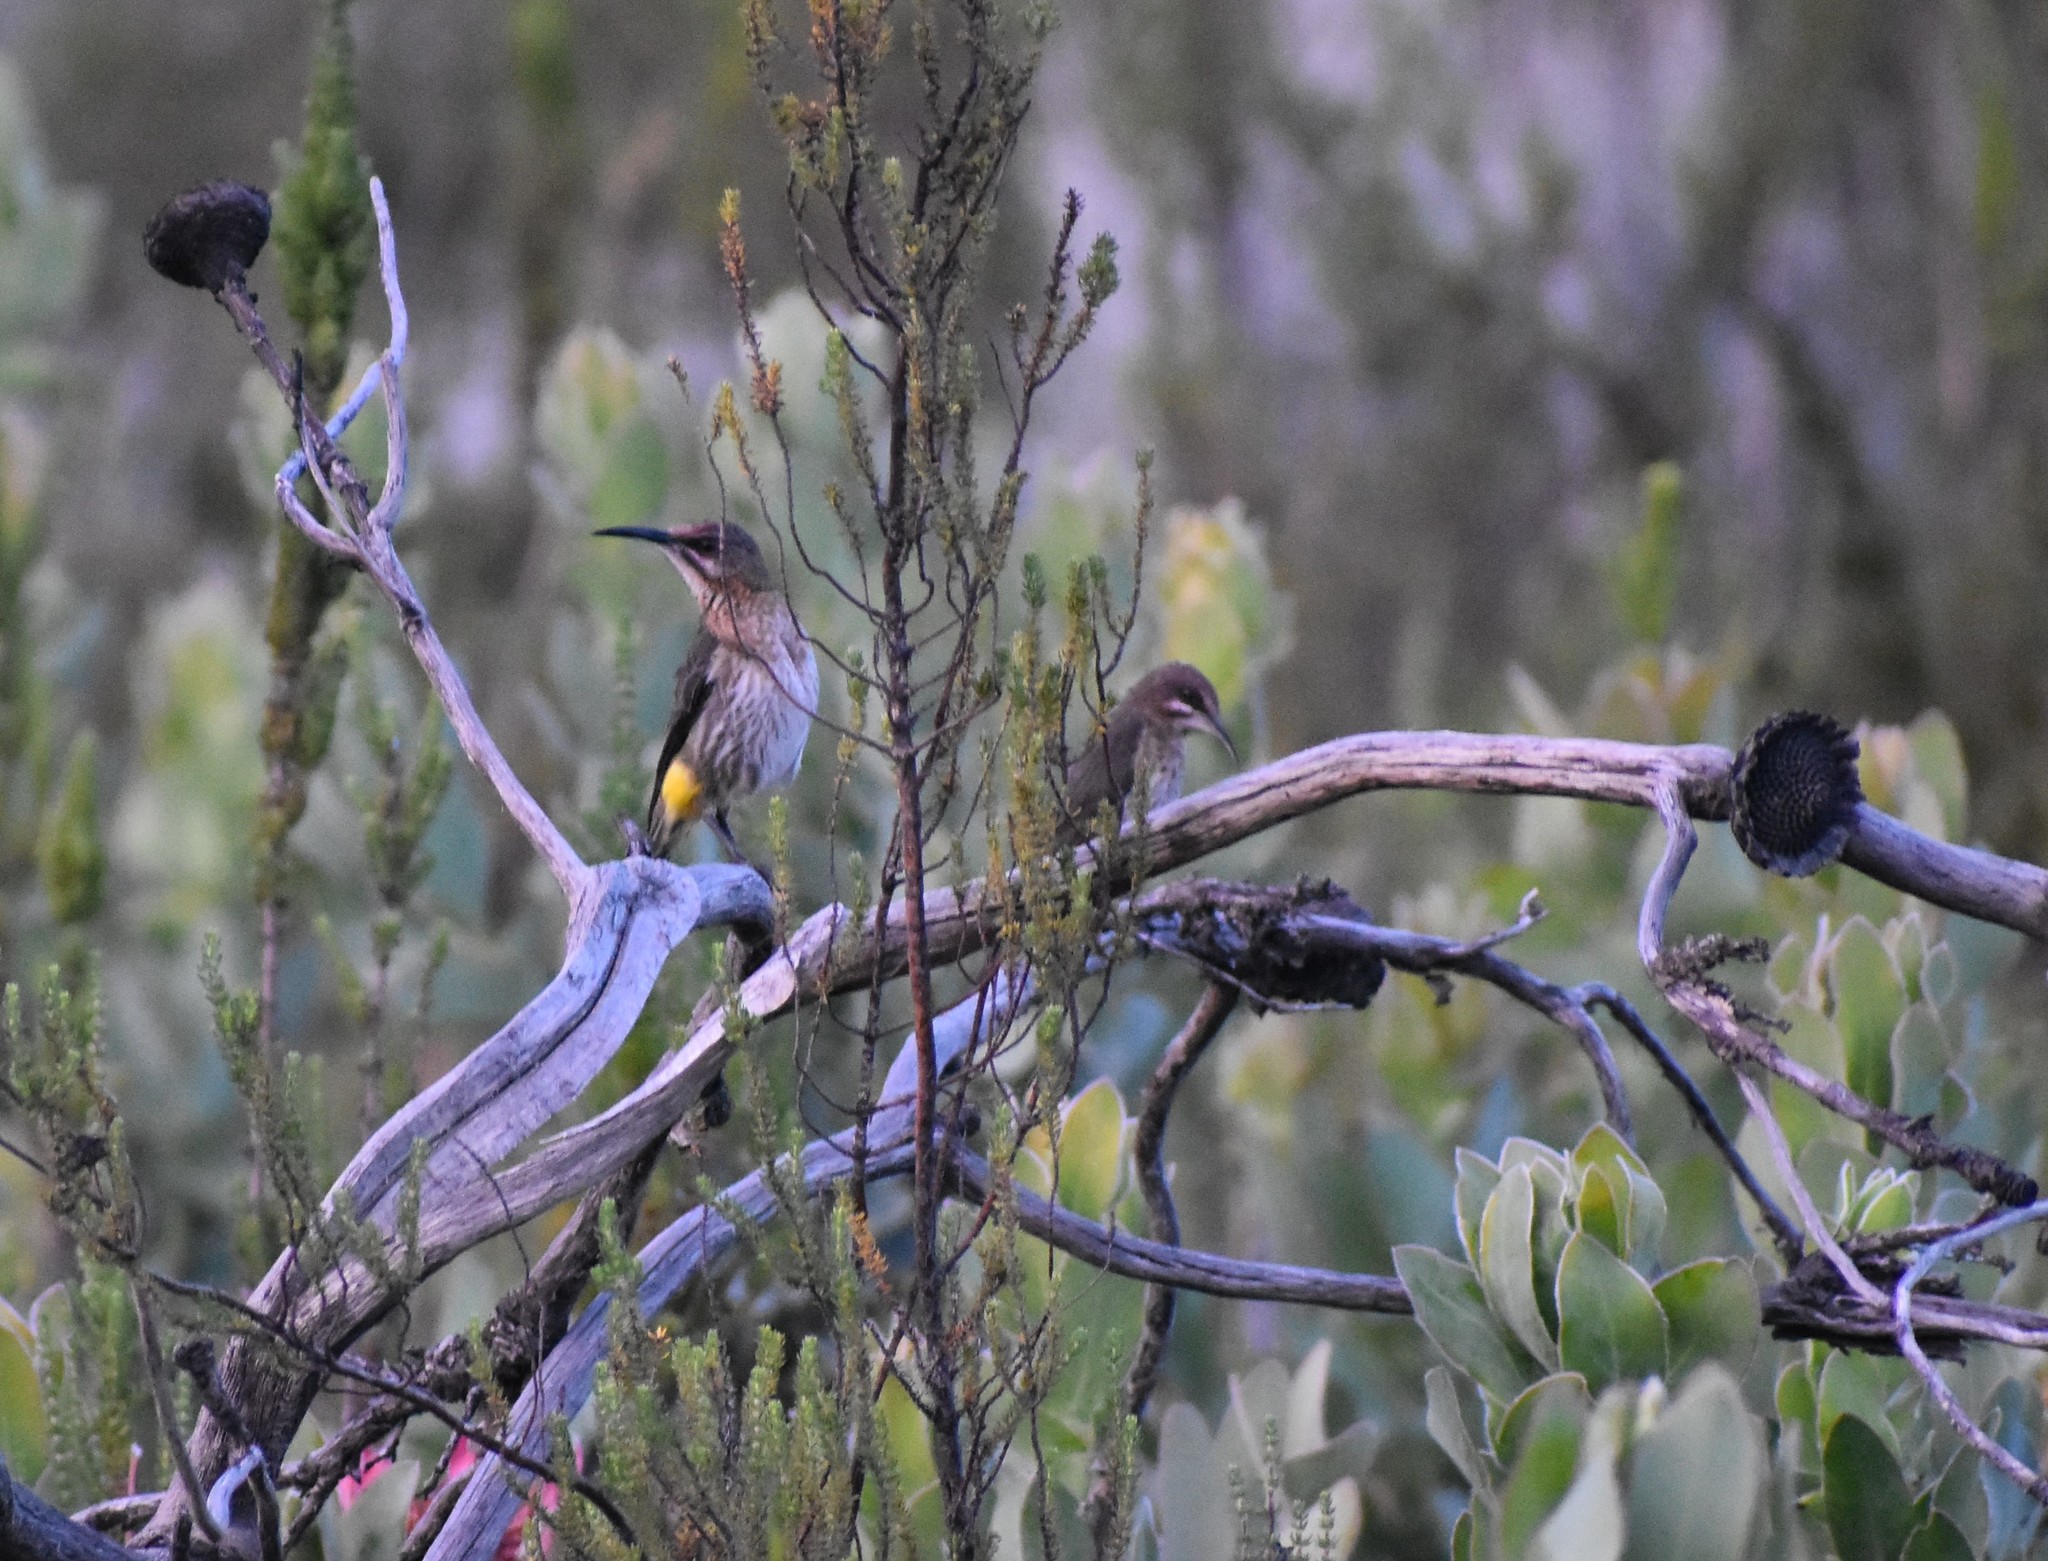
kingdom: Animalia
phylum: Chordata
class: Aves
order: Passeriformes
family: Promeropidae
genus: Promerops
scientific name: Promerops cafer
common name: Cape sugarbird
